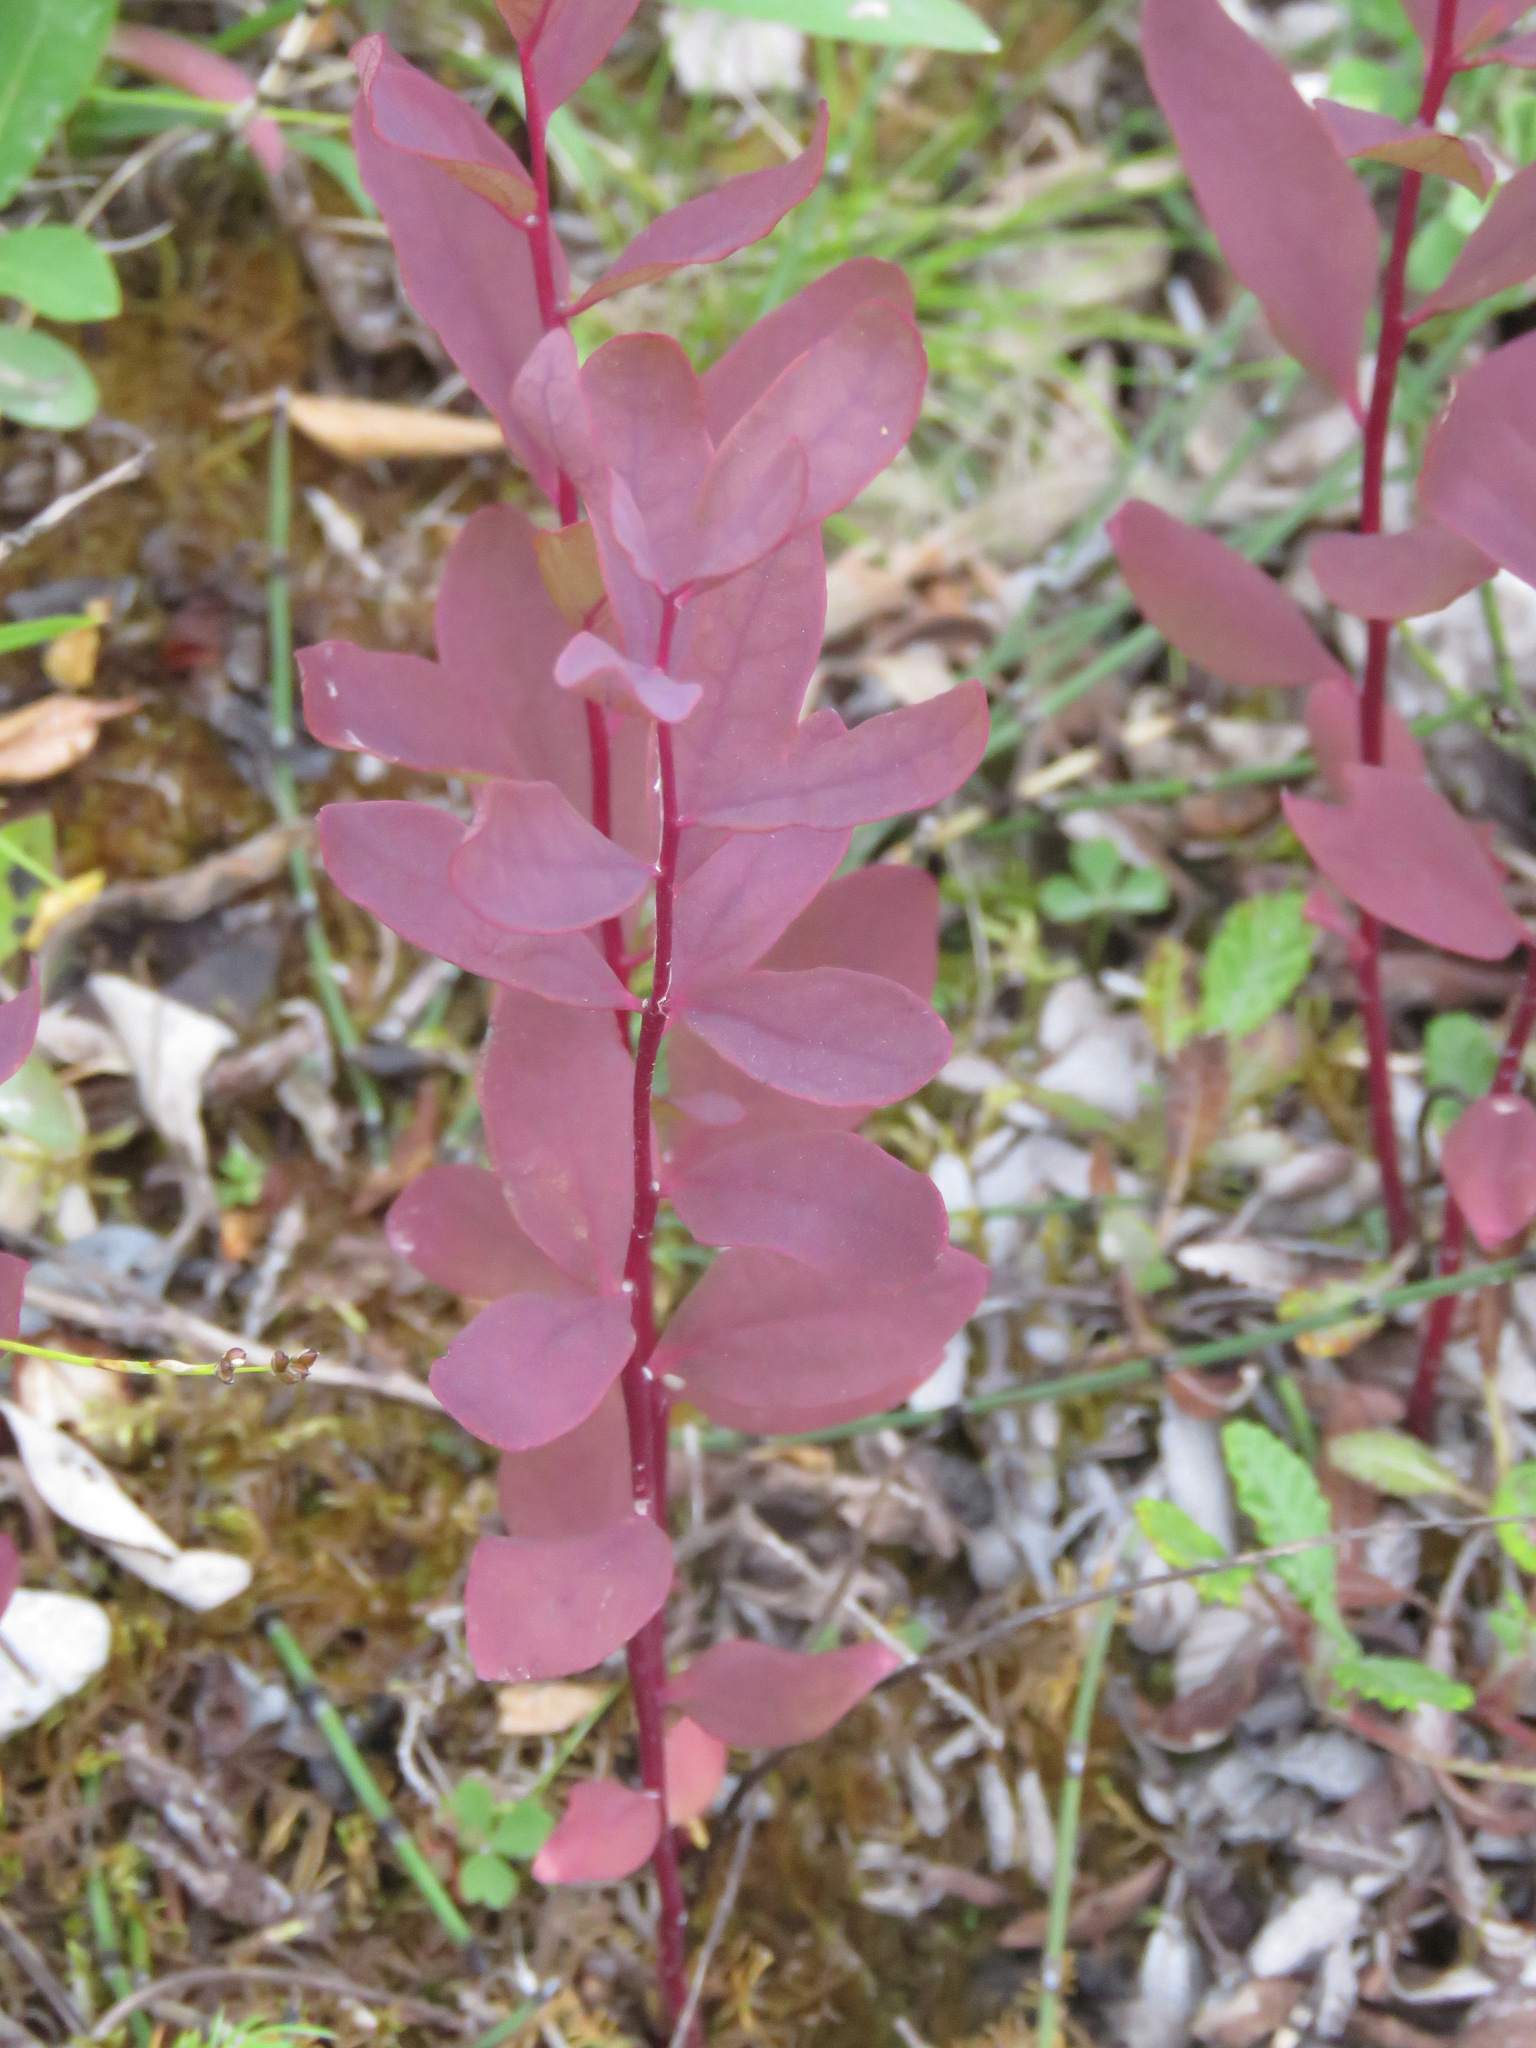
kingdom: Plantae
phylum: Tracheophyta
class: Magnoliopsida
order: Santalales
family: Comandraceae
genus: Geocaulon
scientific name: Geocaulon lividum
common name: Earthberry
